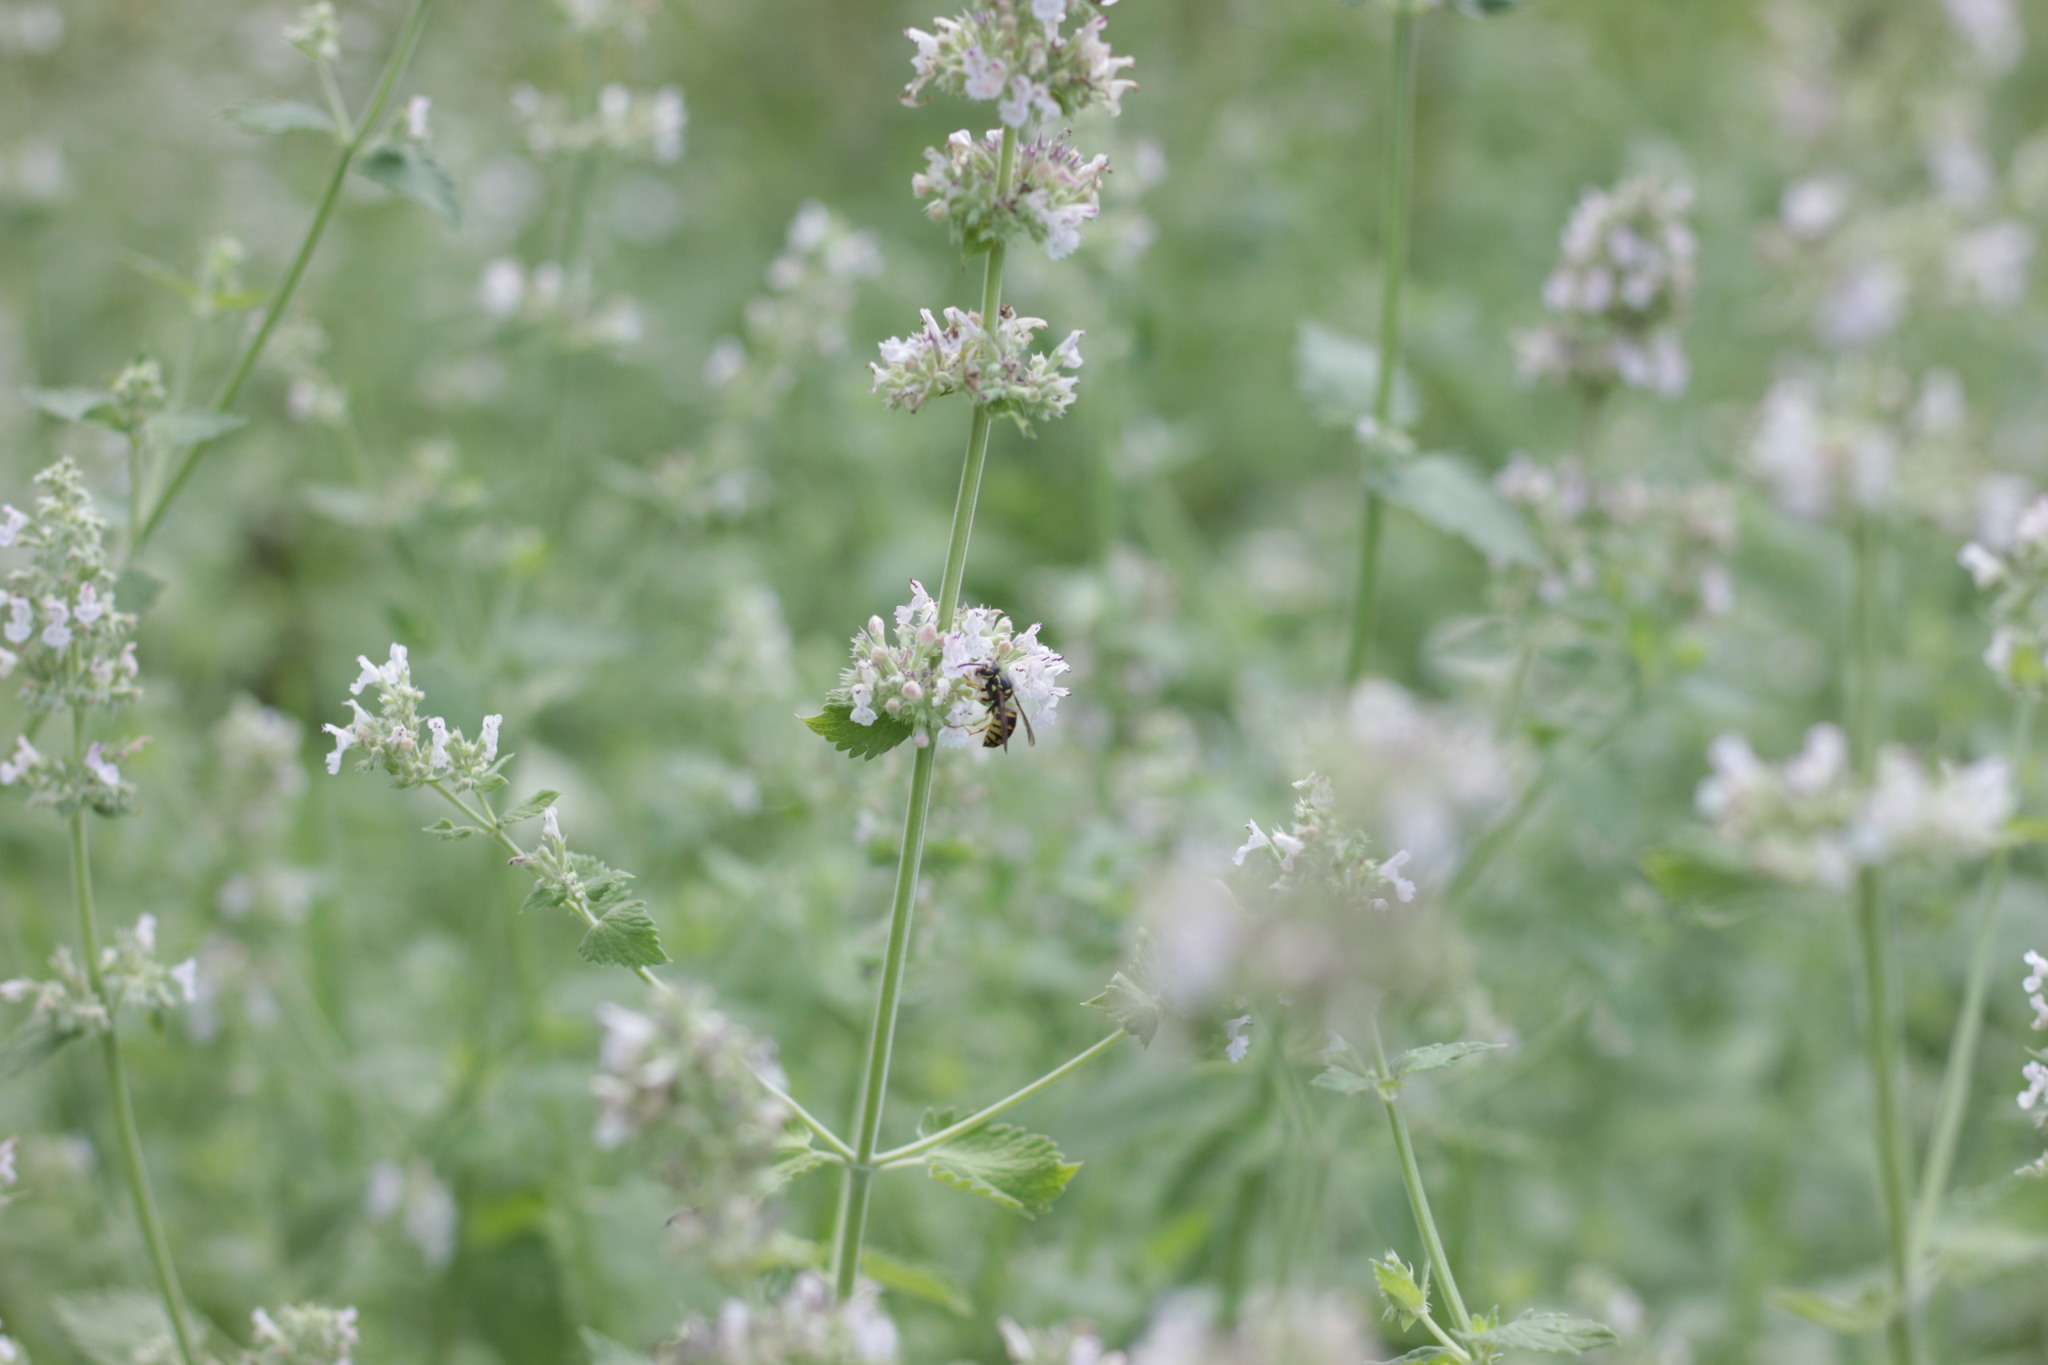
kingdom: Animalia
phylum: Arthropoda
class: Insecta
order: Hymenoptera
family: Vespidae
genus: Dolichovespula
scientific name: Dolichovespula arenaria
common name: Aerial yellowjacket
